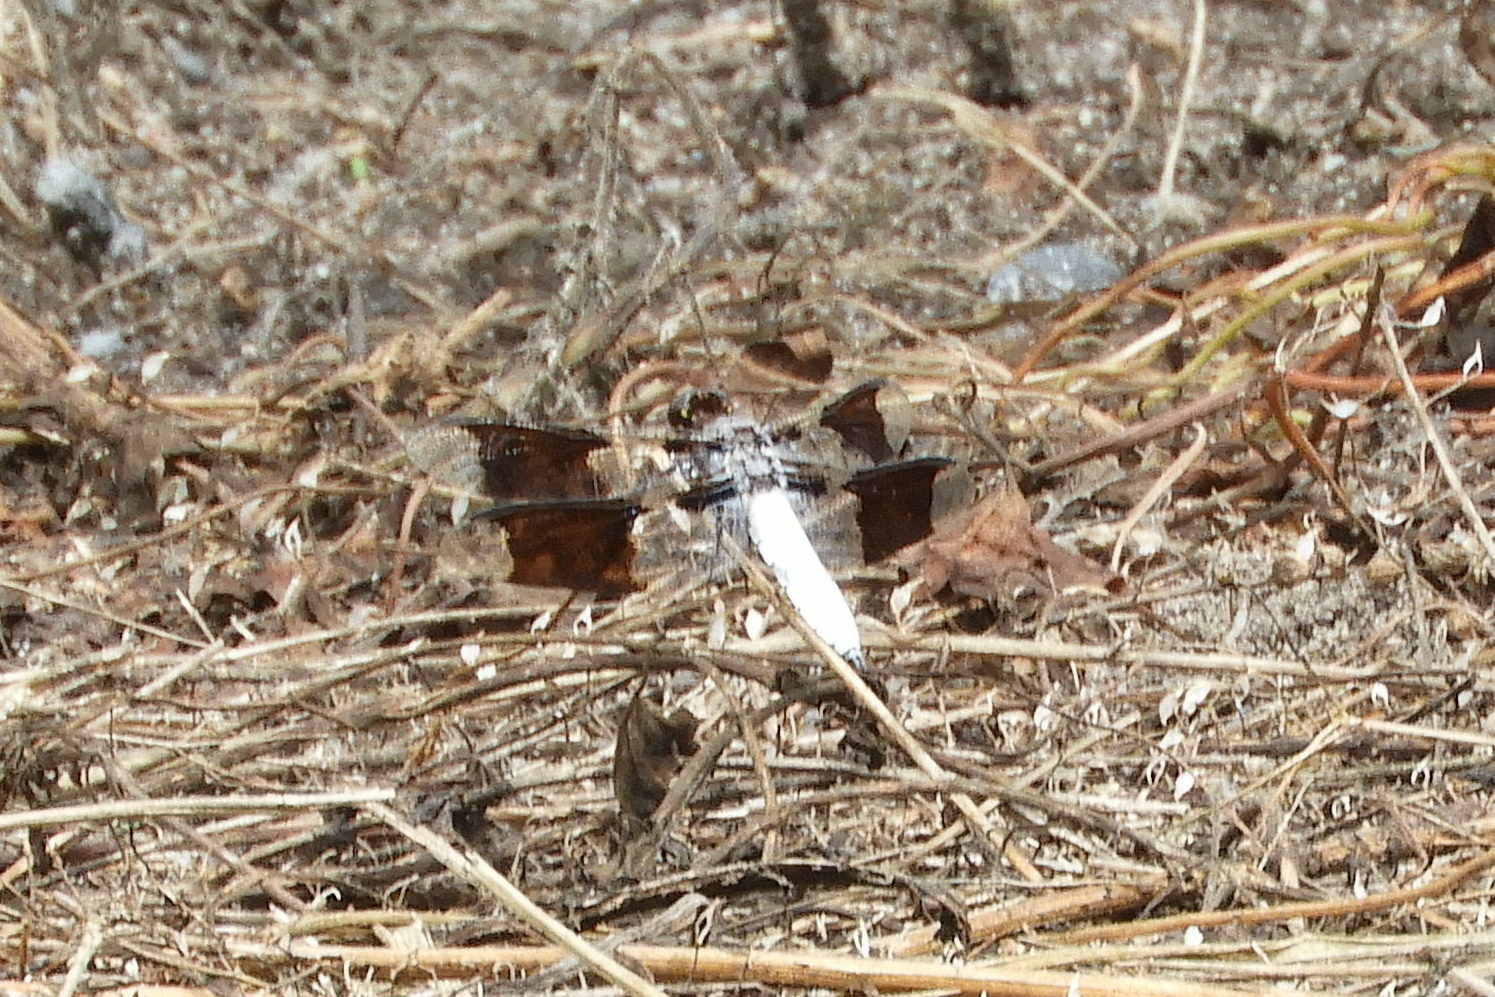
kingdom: Animalia
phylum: Arthropoda
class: Insecta
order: Odonata
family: Libellulidae
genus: Plathemis
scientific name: Plathemis lydia
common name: Common whitetail
